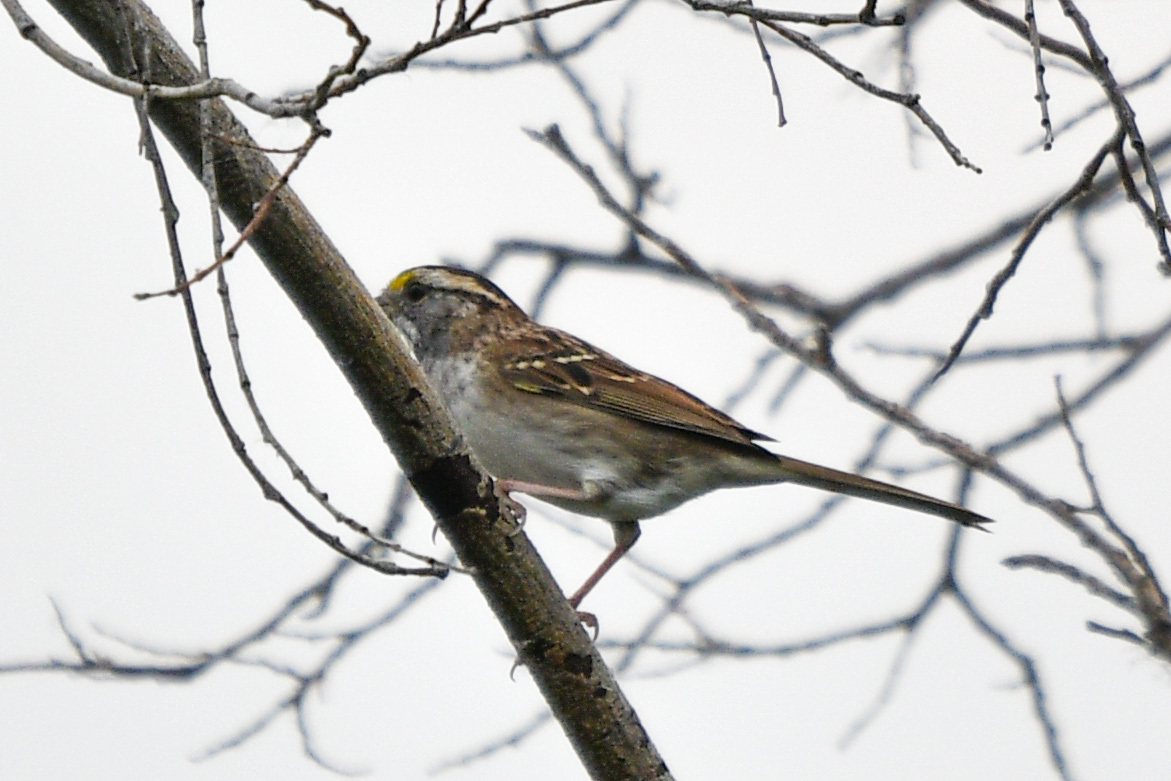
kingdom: Animalia
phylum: Chordata
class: Aves
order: Passeriformes
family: Passerellidae
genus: Zonotrichia
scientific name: Zonotrichia albicollis
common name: White-throated sparrow
